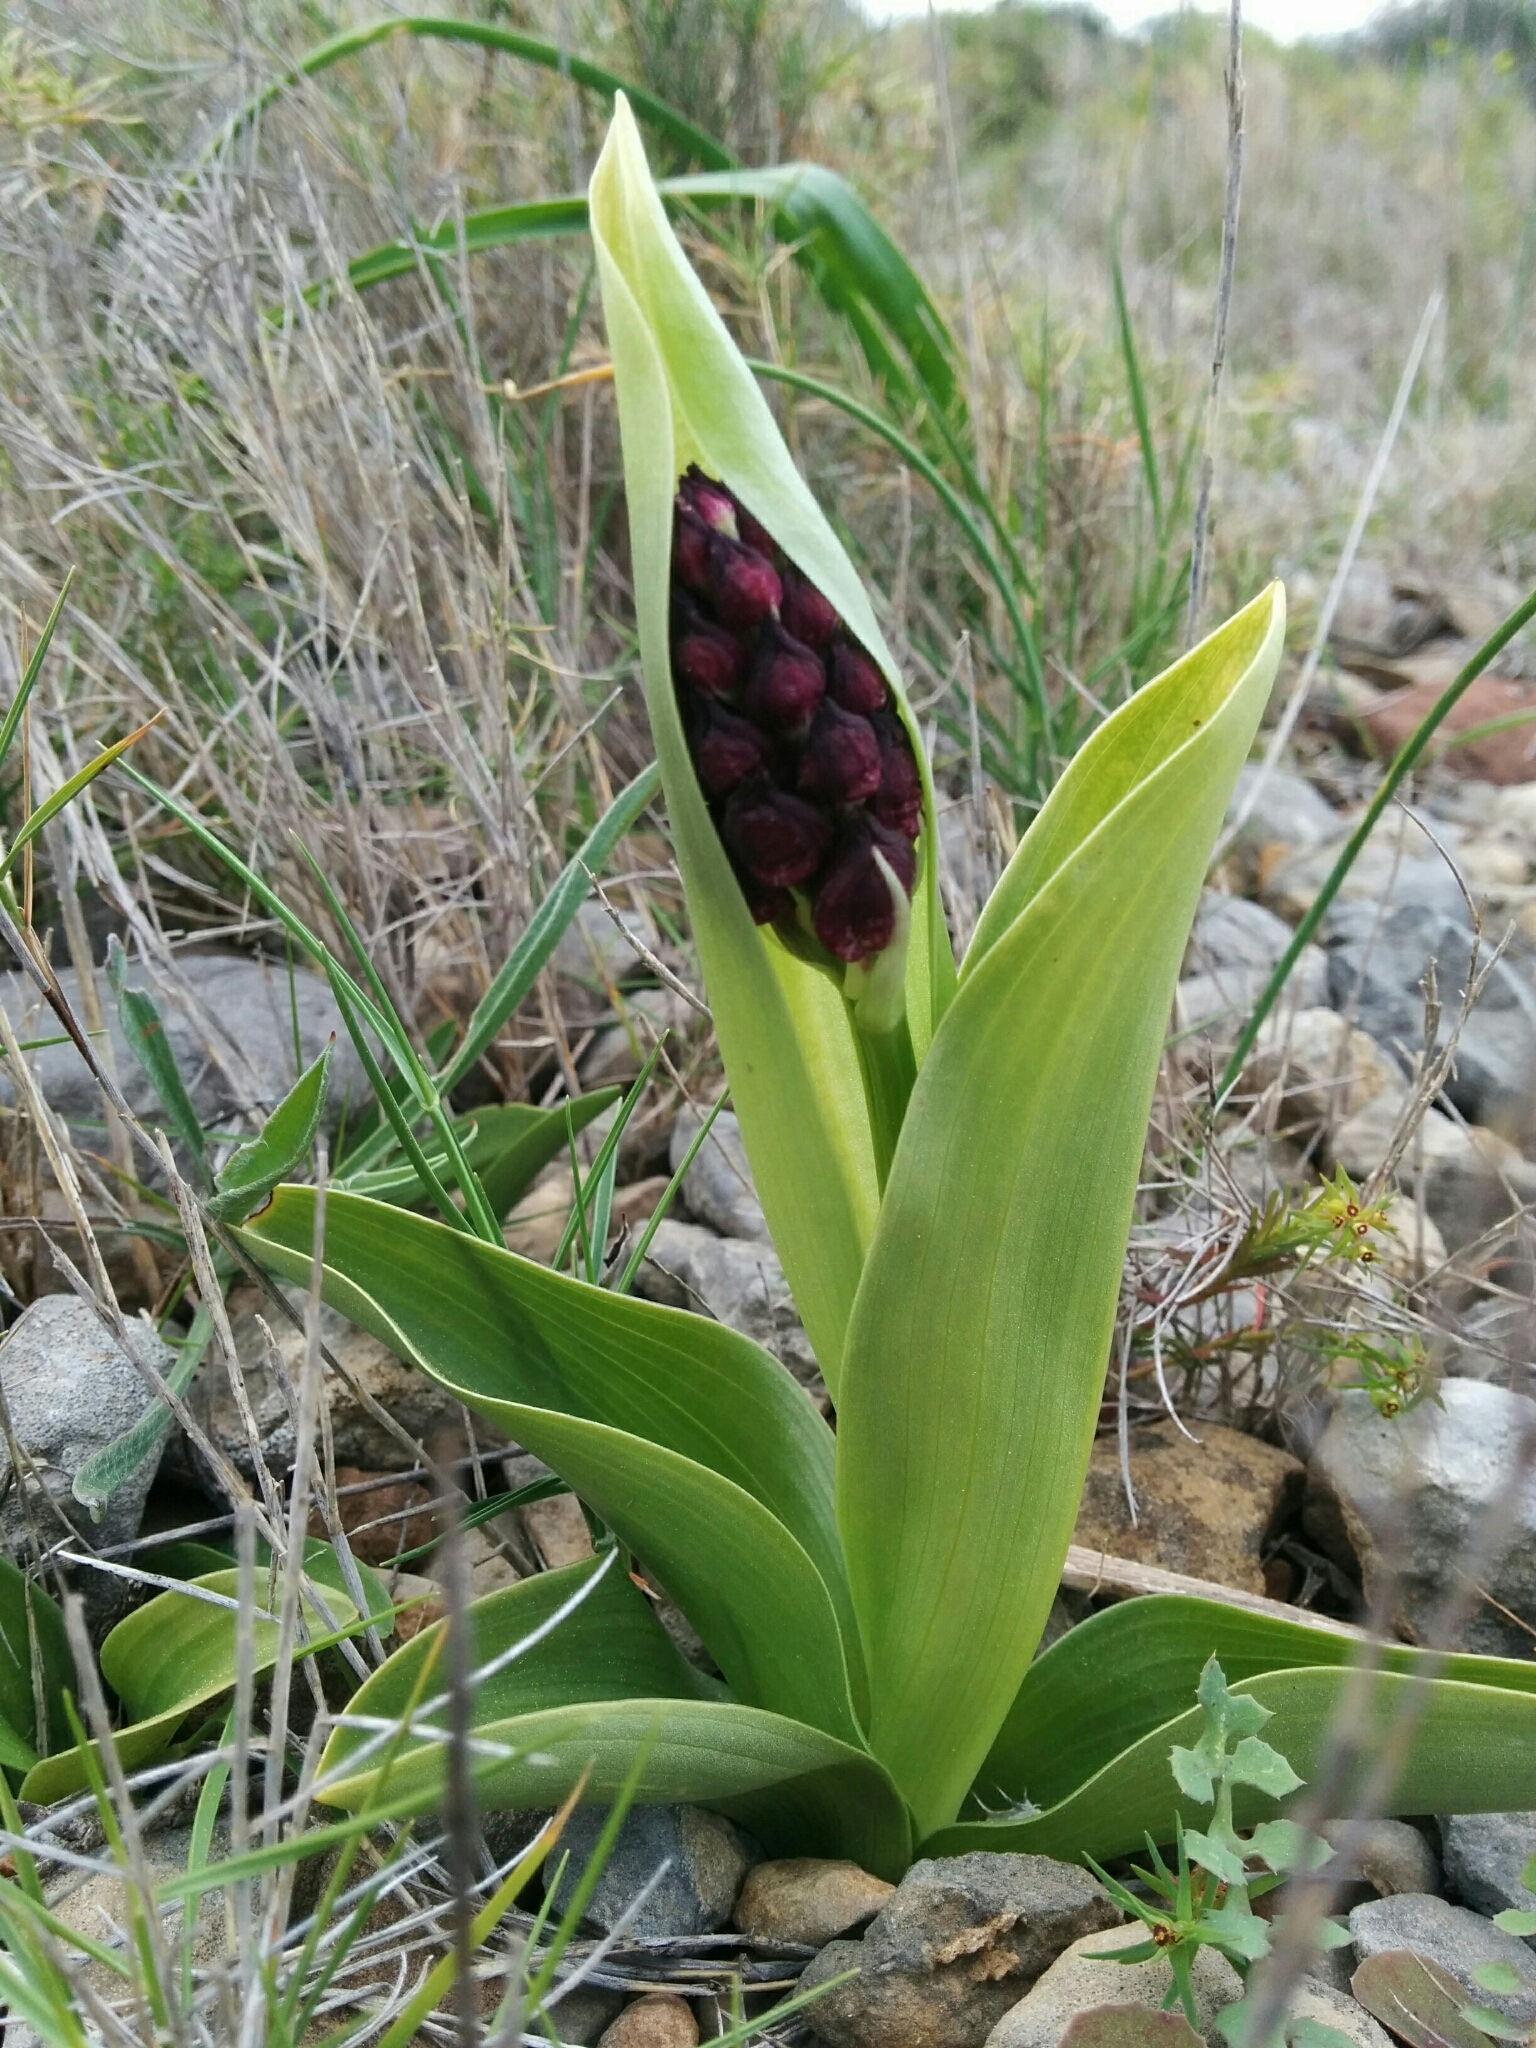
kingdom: Plantae
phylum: Tracheophyta
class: Liliopsida
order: Asparagales
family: Orchidaceae
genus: Orchis
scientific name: Orchis purpurea
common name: Lady orchid
